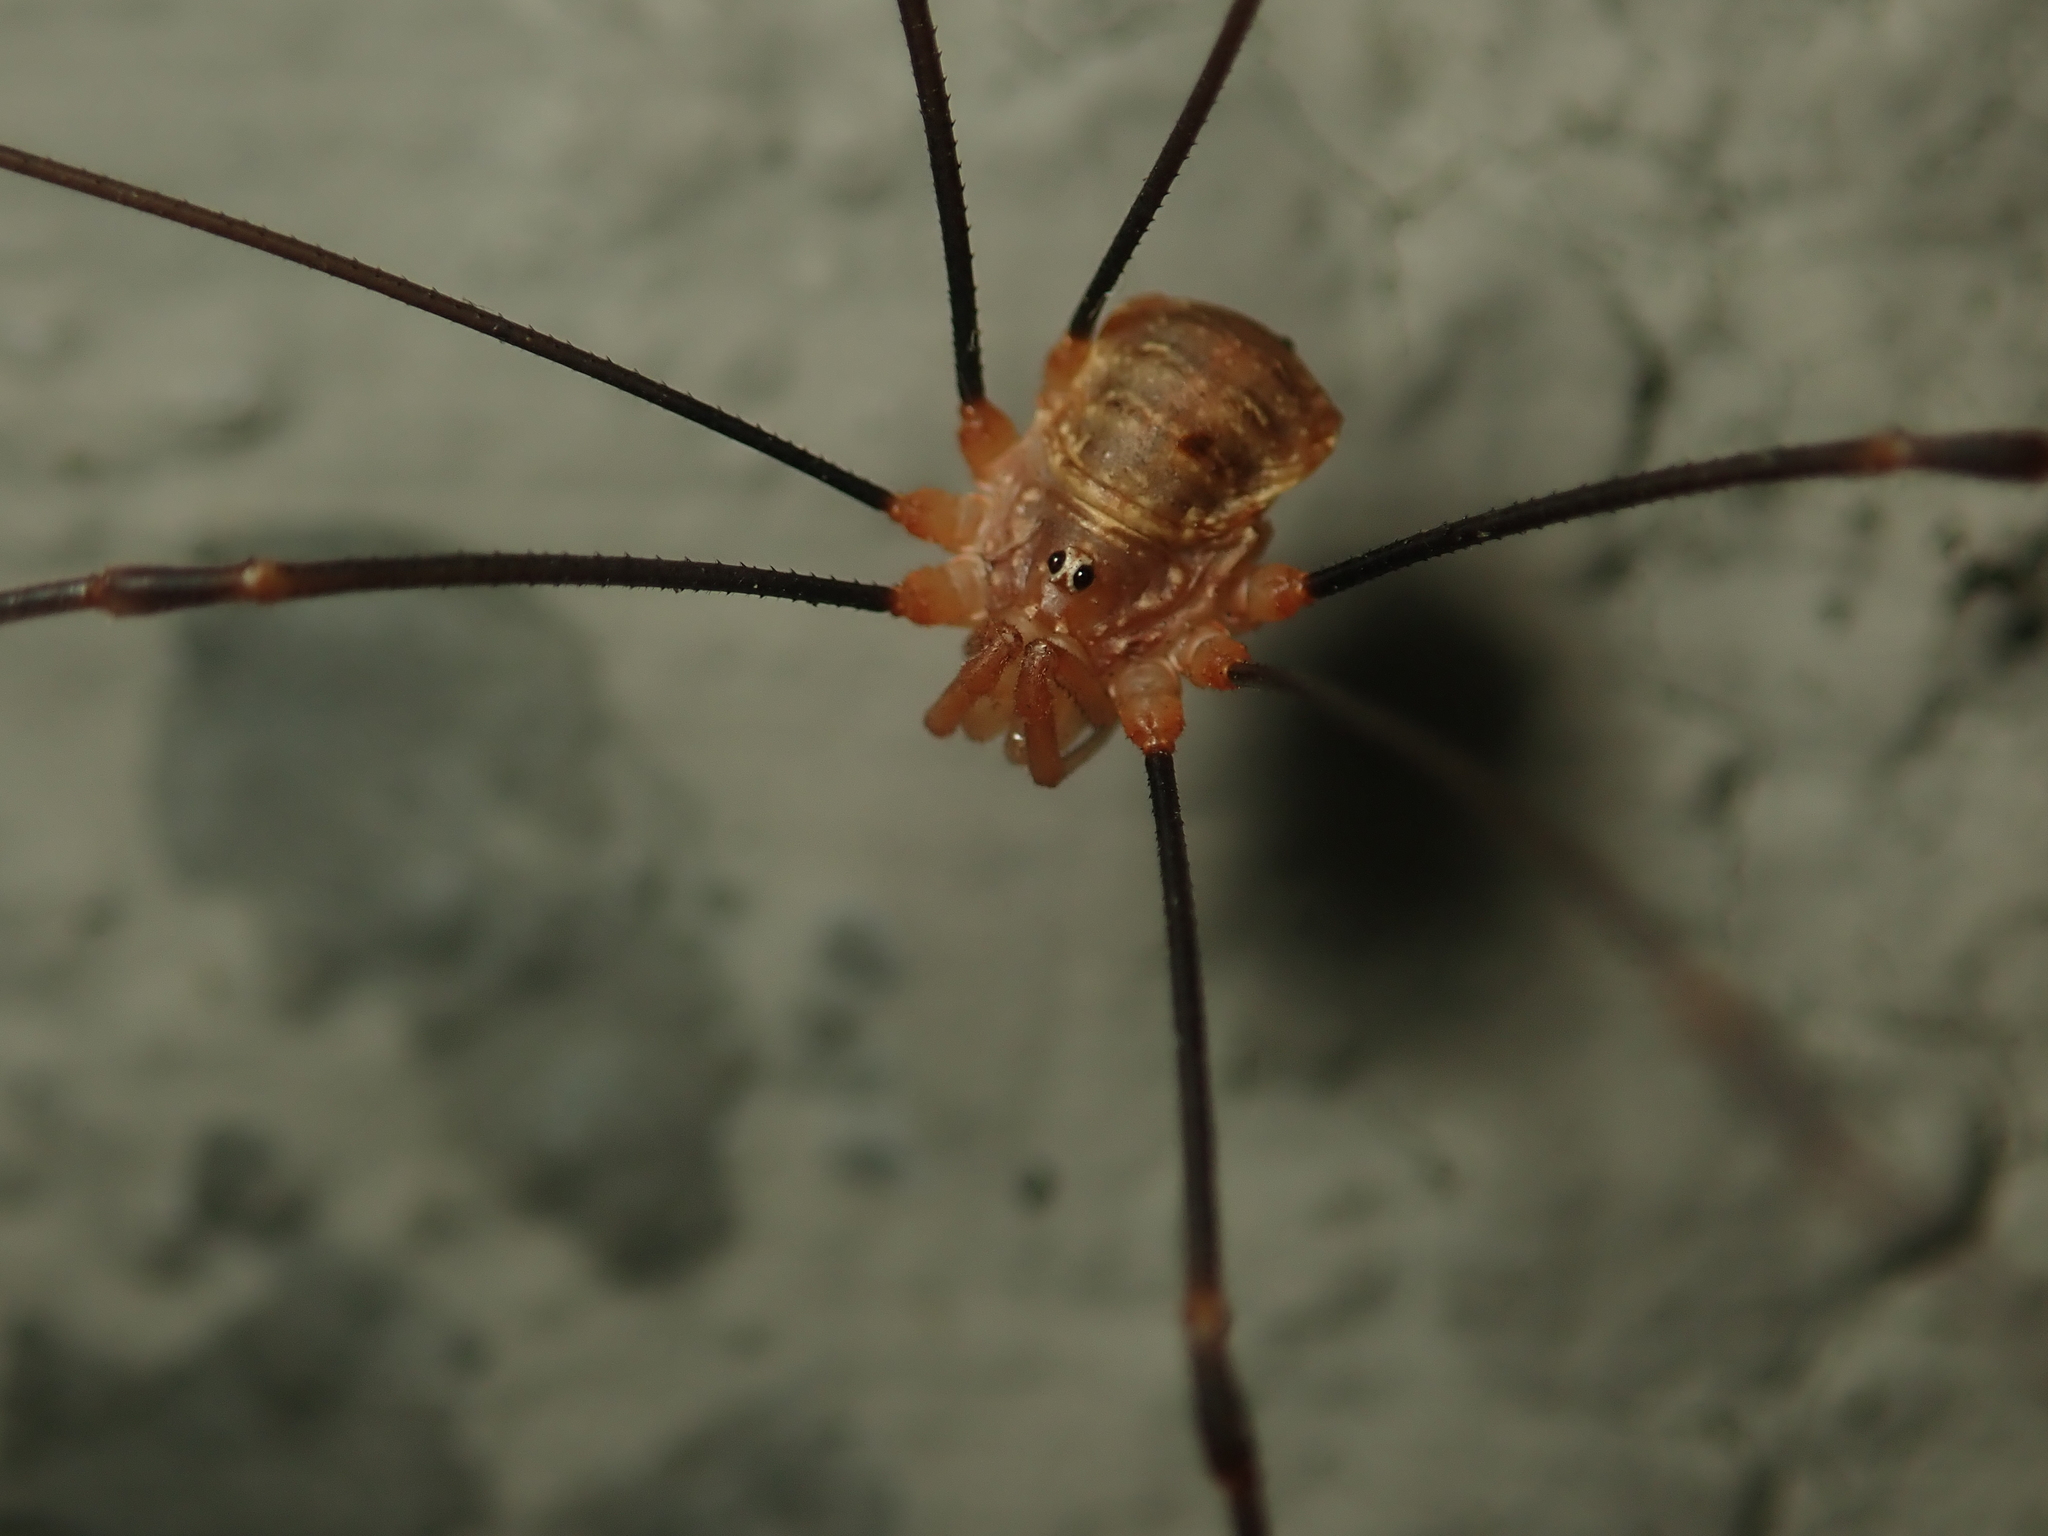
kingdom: Animalia
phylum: Arthropoda
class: Arachnida
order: Opiliones
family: Phalangiidae
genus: Opilio
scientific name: Opilio canestrinii
